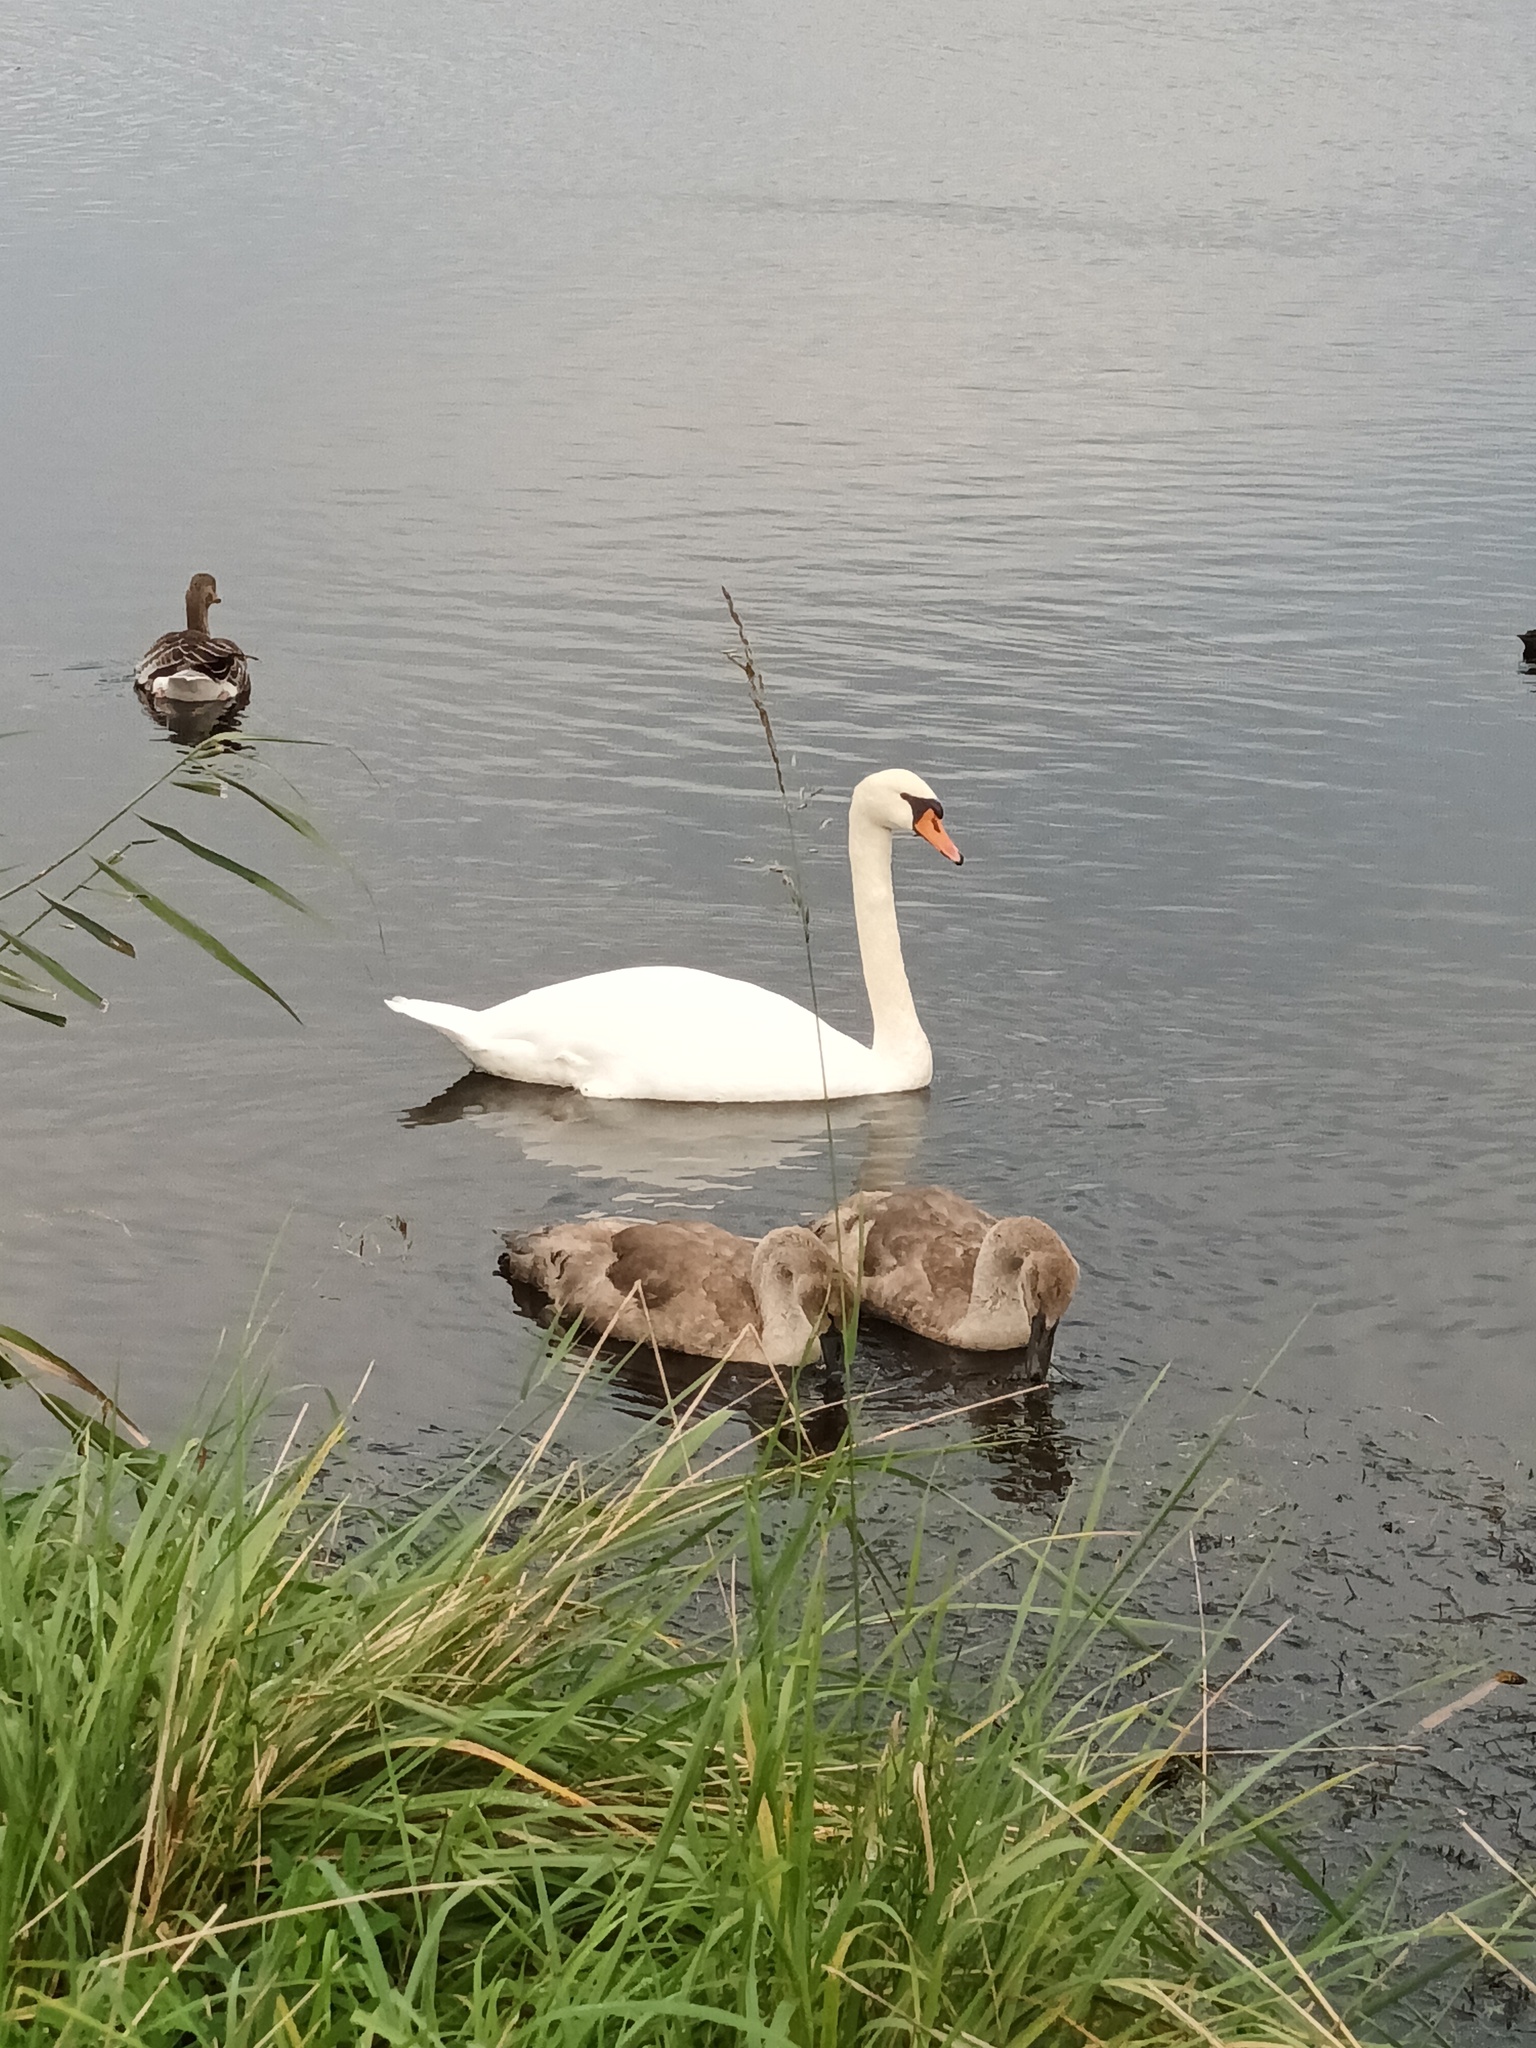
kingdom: Animalia
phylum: Chordata
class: Aves
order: Anseriformes
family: Anatidae
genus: Cygnus
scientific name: Cygnus olor
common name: Mute swan
